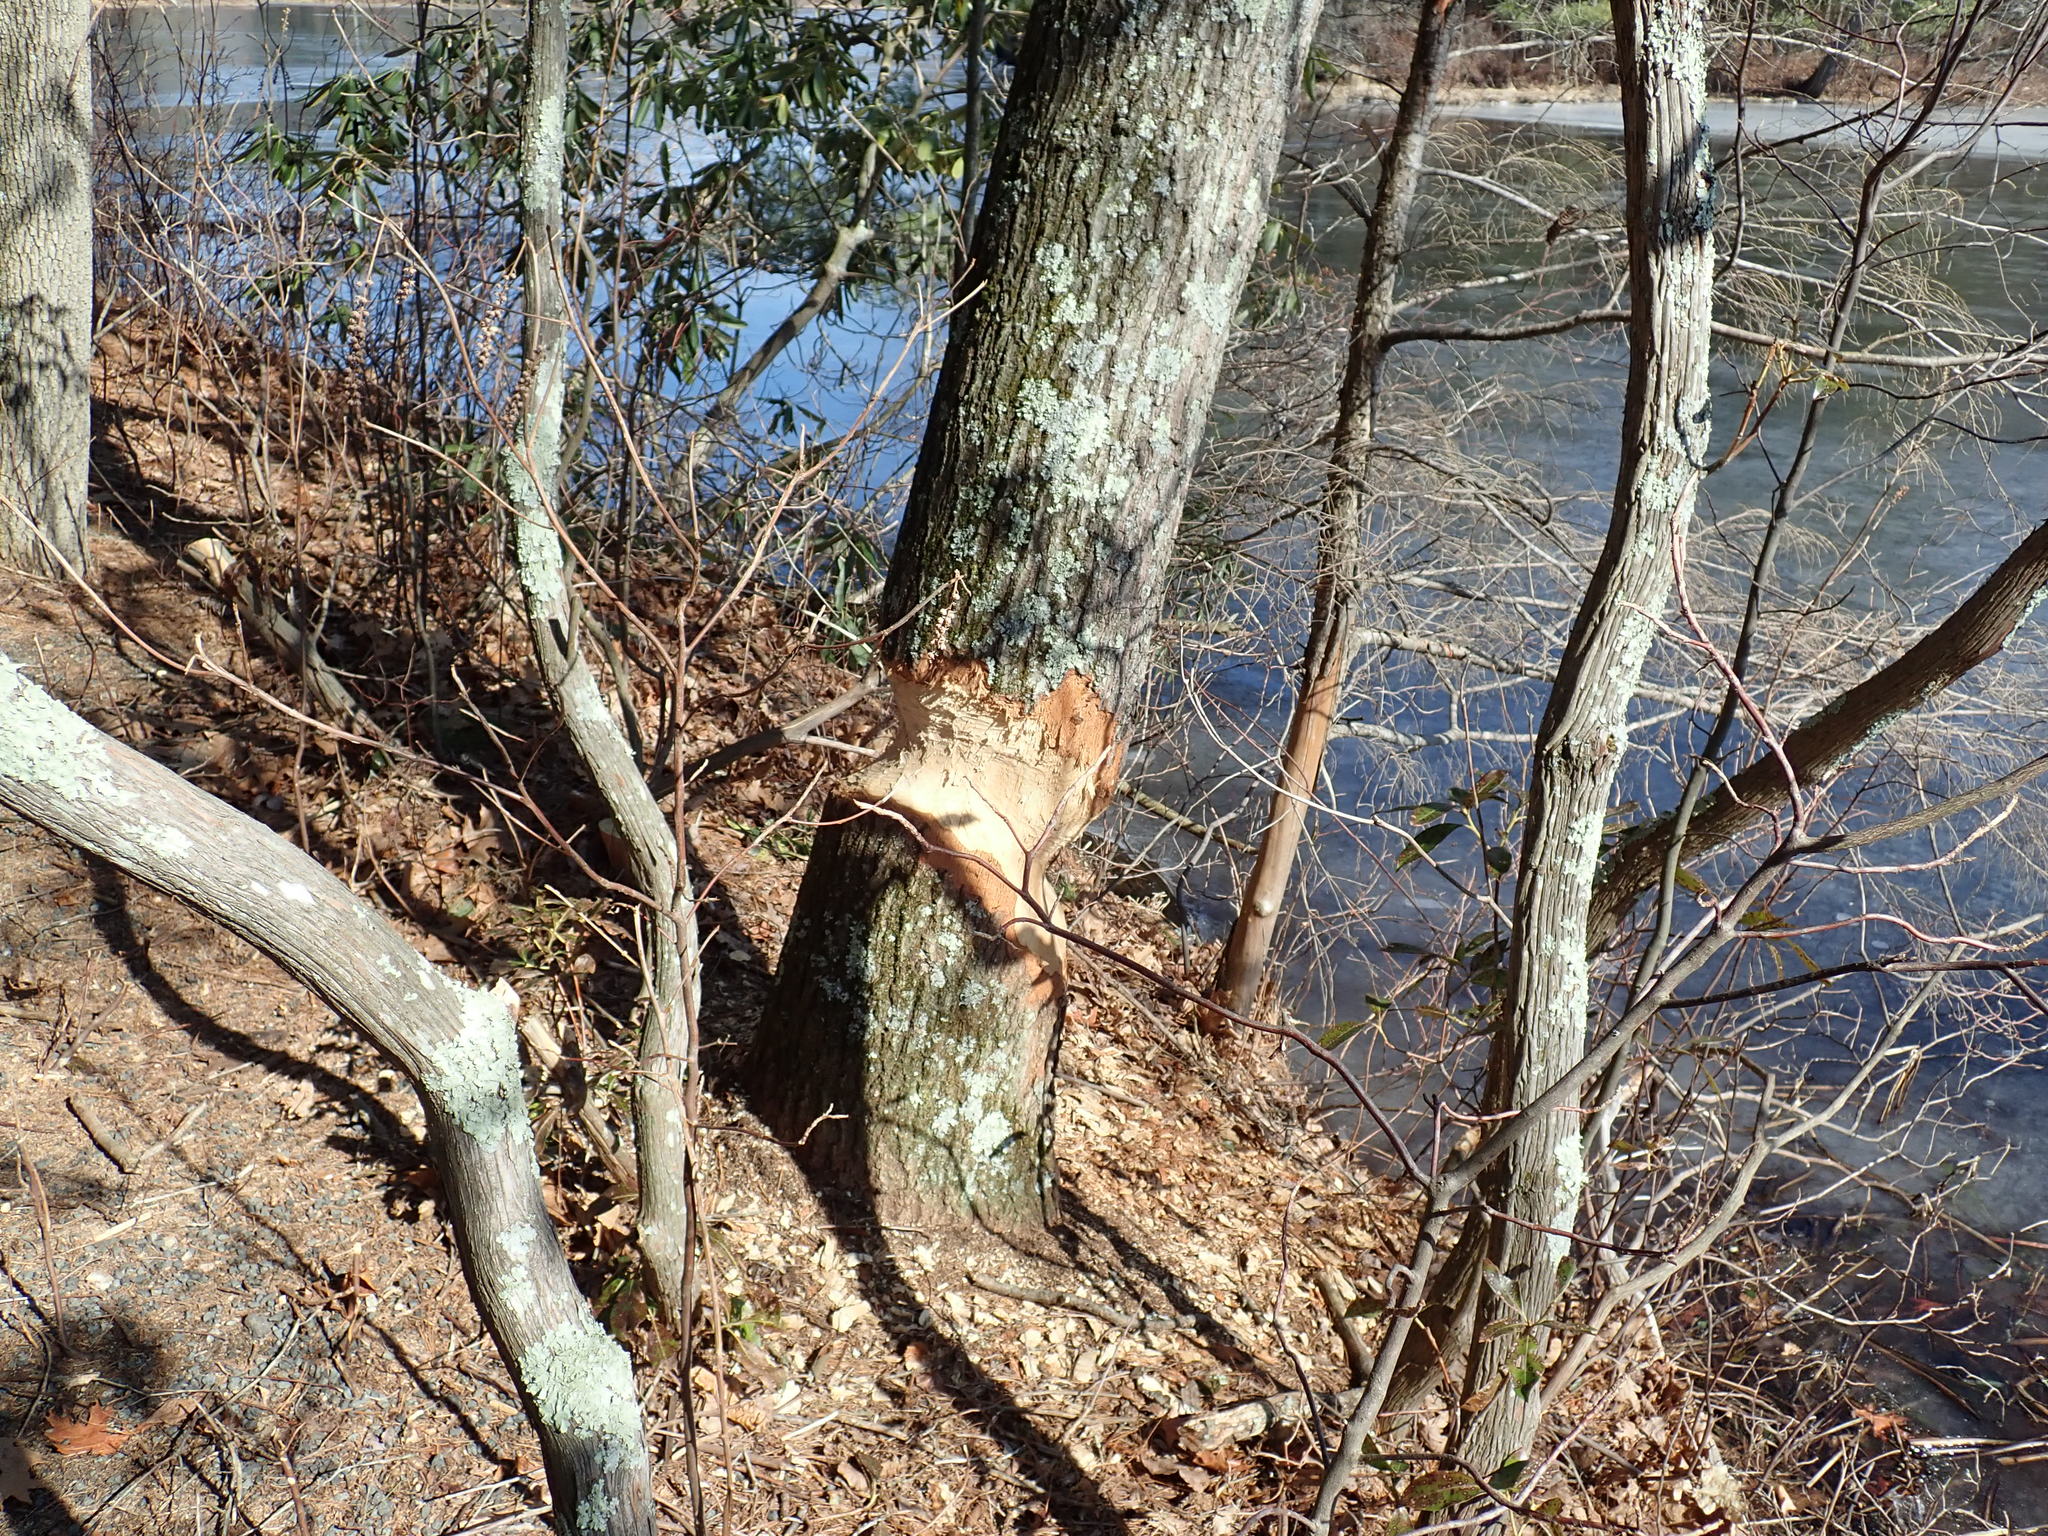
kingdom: Animalia
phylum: Chordata
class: Mammalia
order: Rodentia
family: Castoridae
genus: Castor
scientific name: Castor canadensis
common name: American beaver
